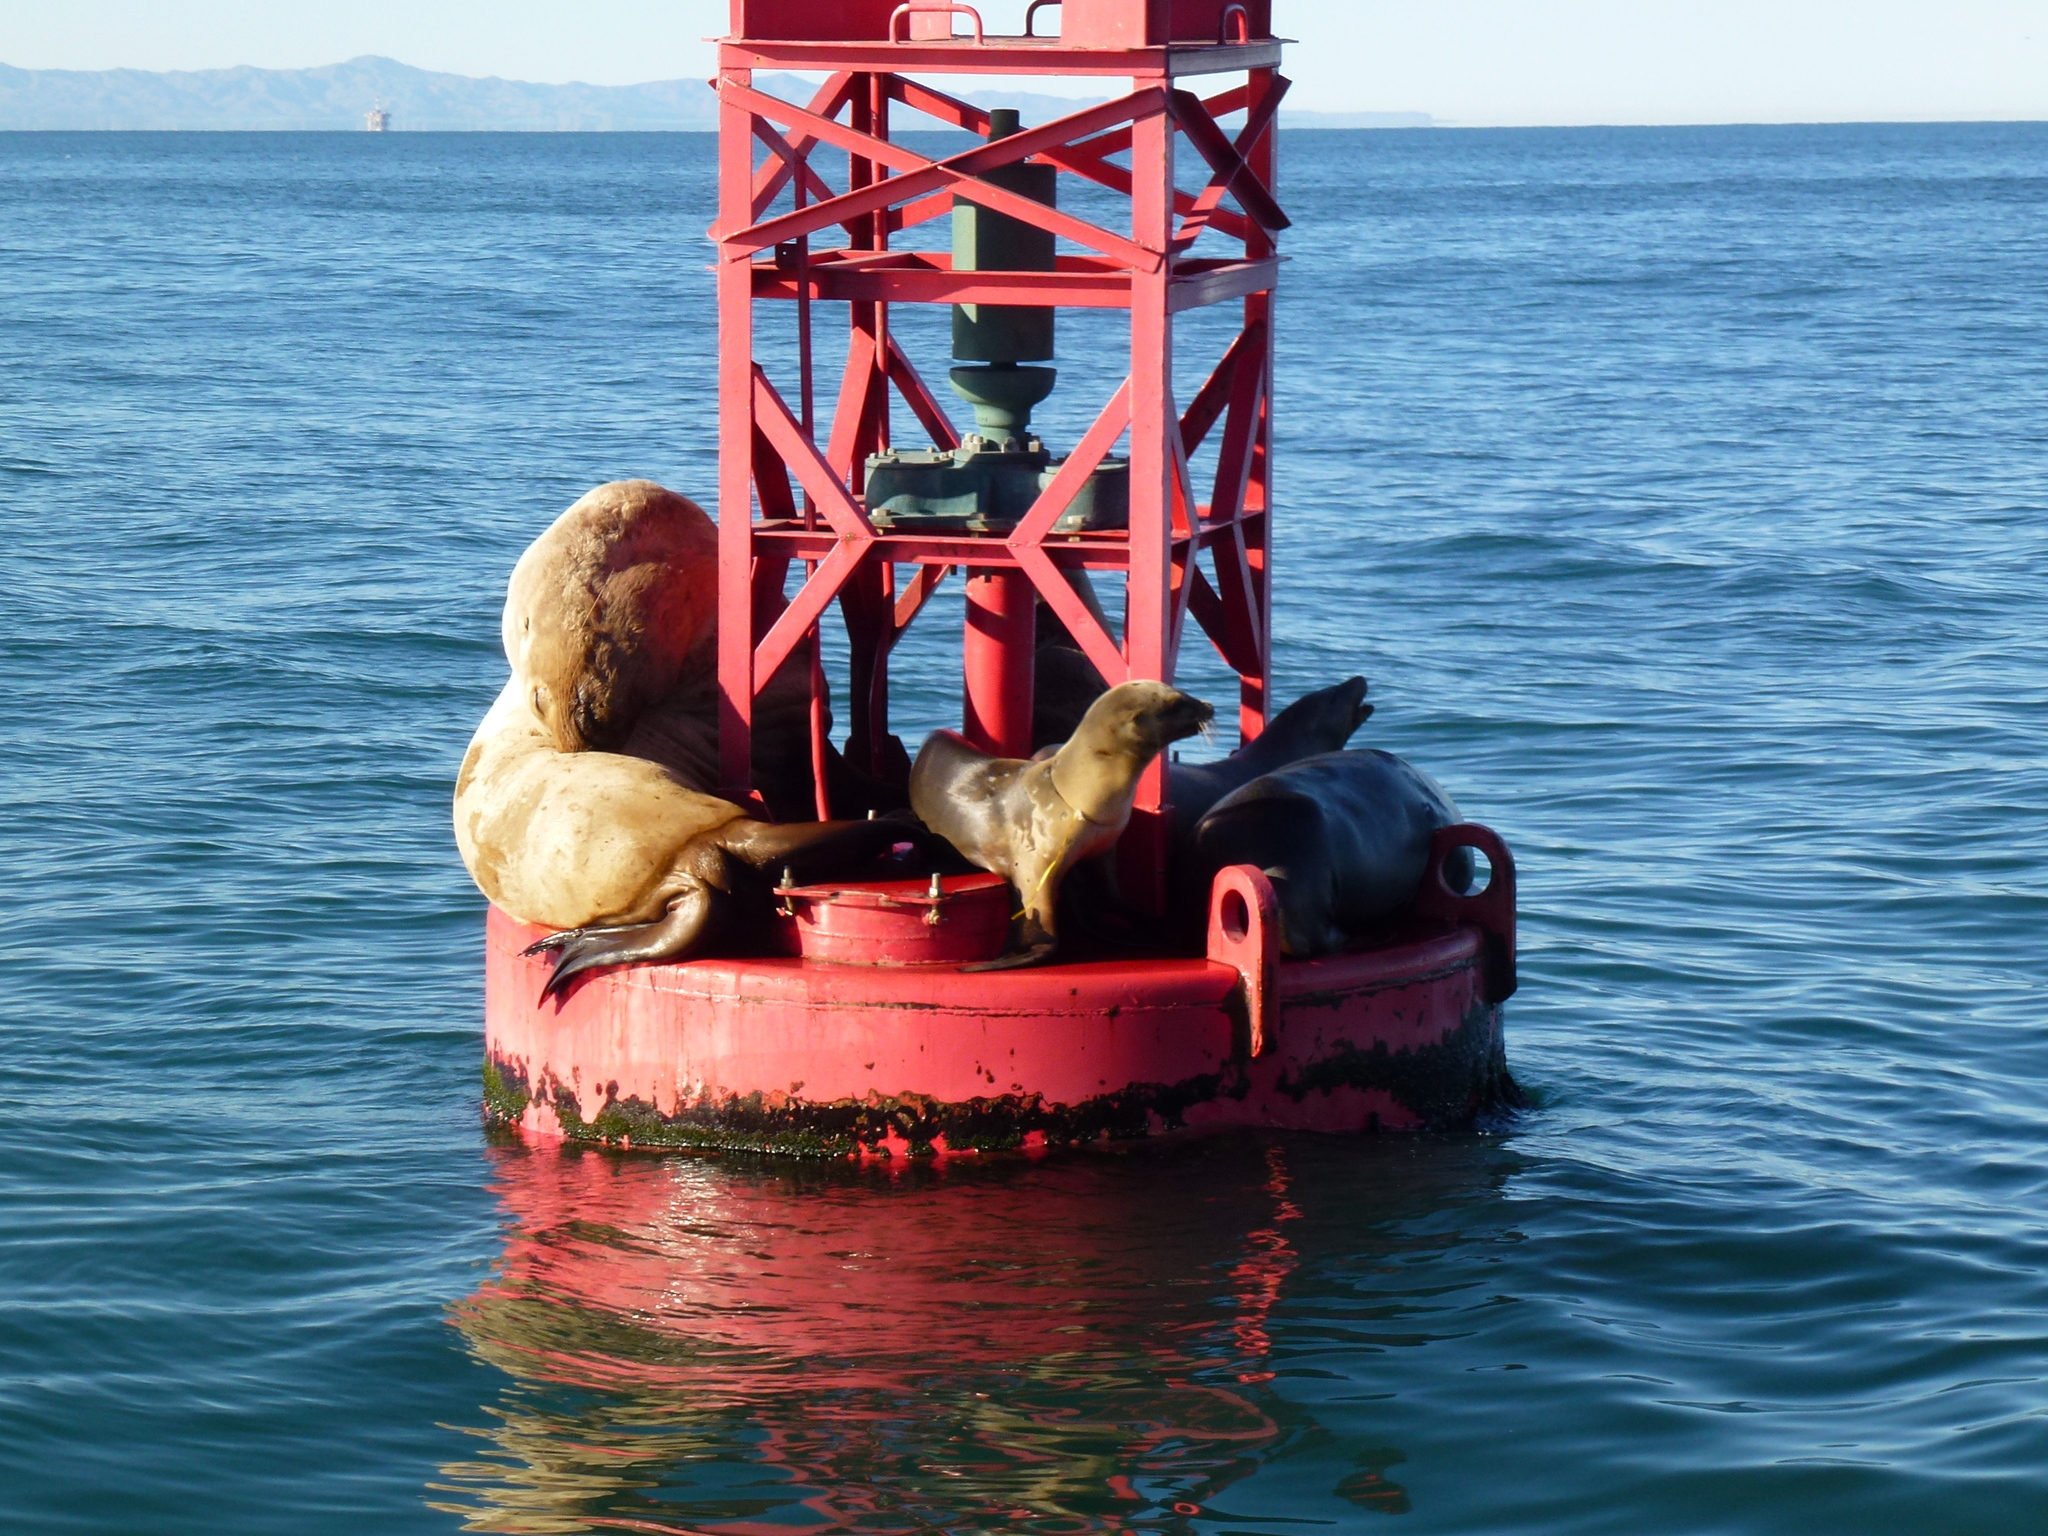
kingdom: Animalia
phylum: Chordata
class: Mammalia
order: Carnivora
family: Otariidae
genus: Eumetopias
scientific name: Eumetopias jubatus
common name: Steller sea lion
